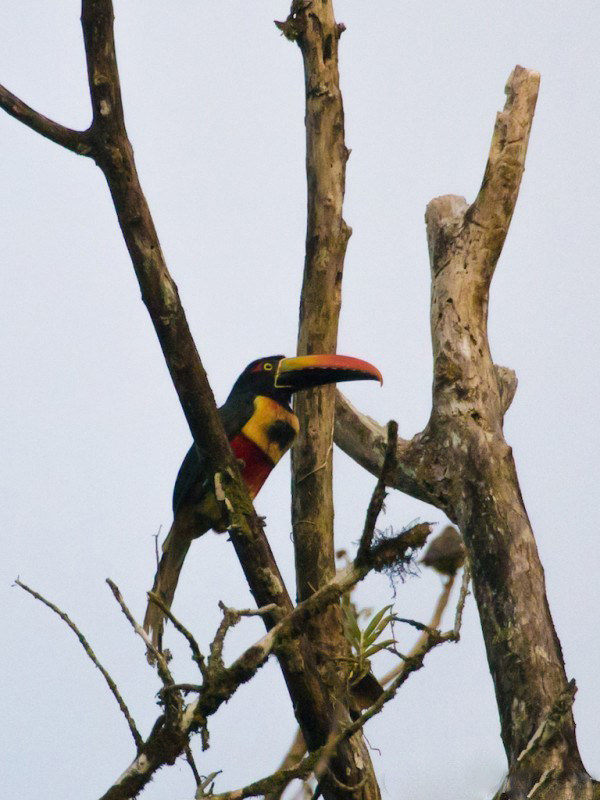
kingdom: Animalia
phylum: Chordata
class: Aves
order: Piciformes
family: Ramphastidae
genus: Pteroglossus
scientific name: Pteroglossus frantzii
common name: Fiery-billed aracari
